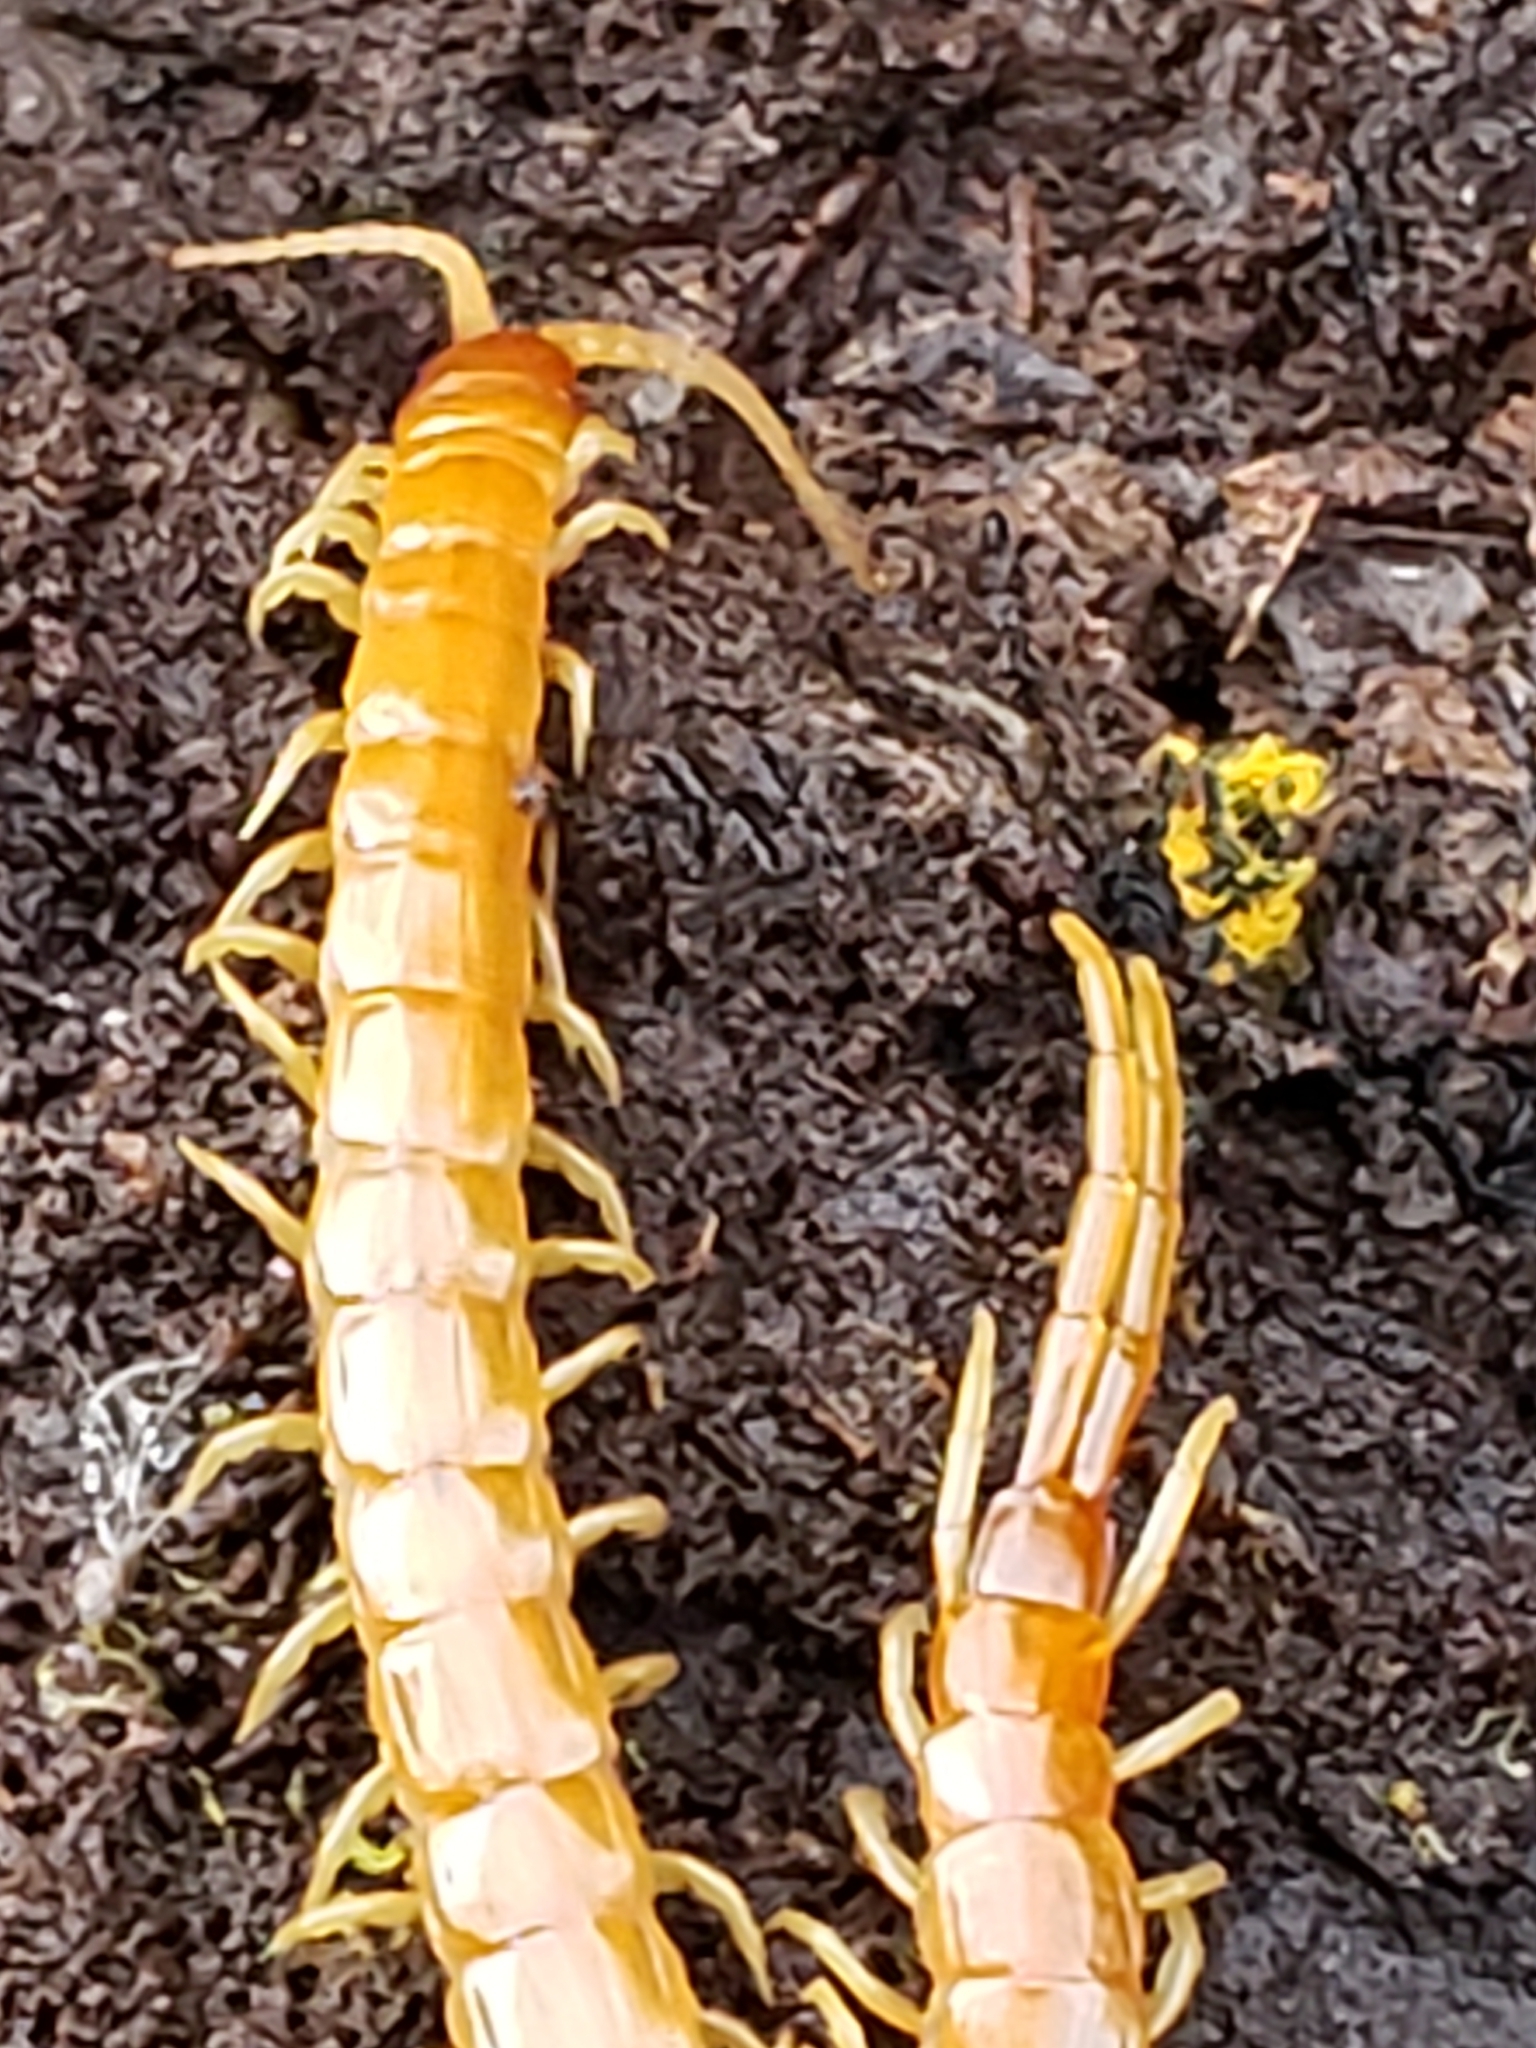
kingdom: Animalia
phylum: Arthropoda
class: Chilopoda
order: Scolopendromorpha
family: Scolopocryptopidae
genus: Scolopocryptops
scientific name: Scolopocryptops peregrinator
